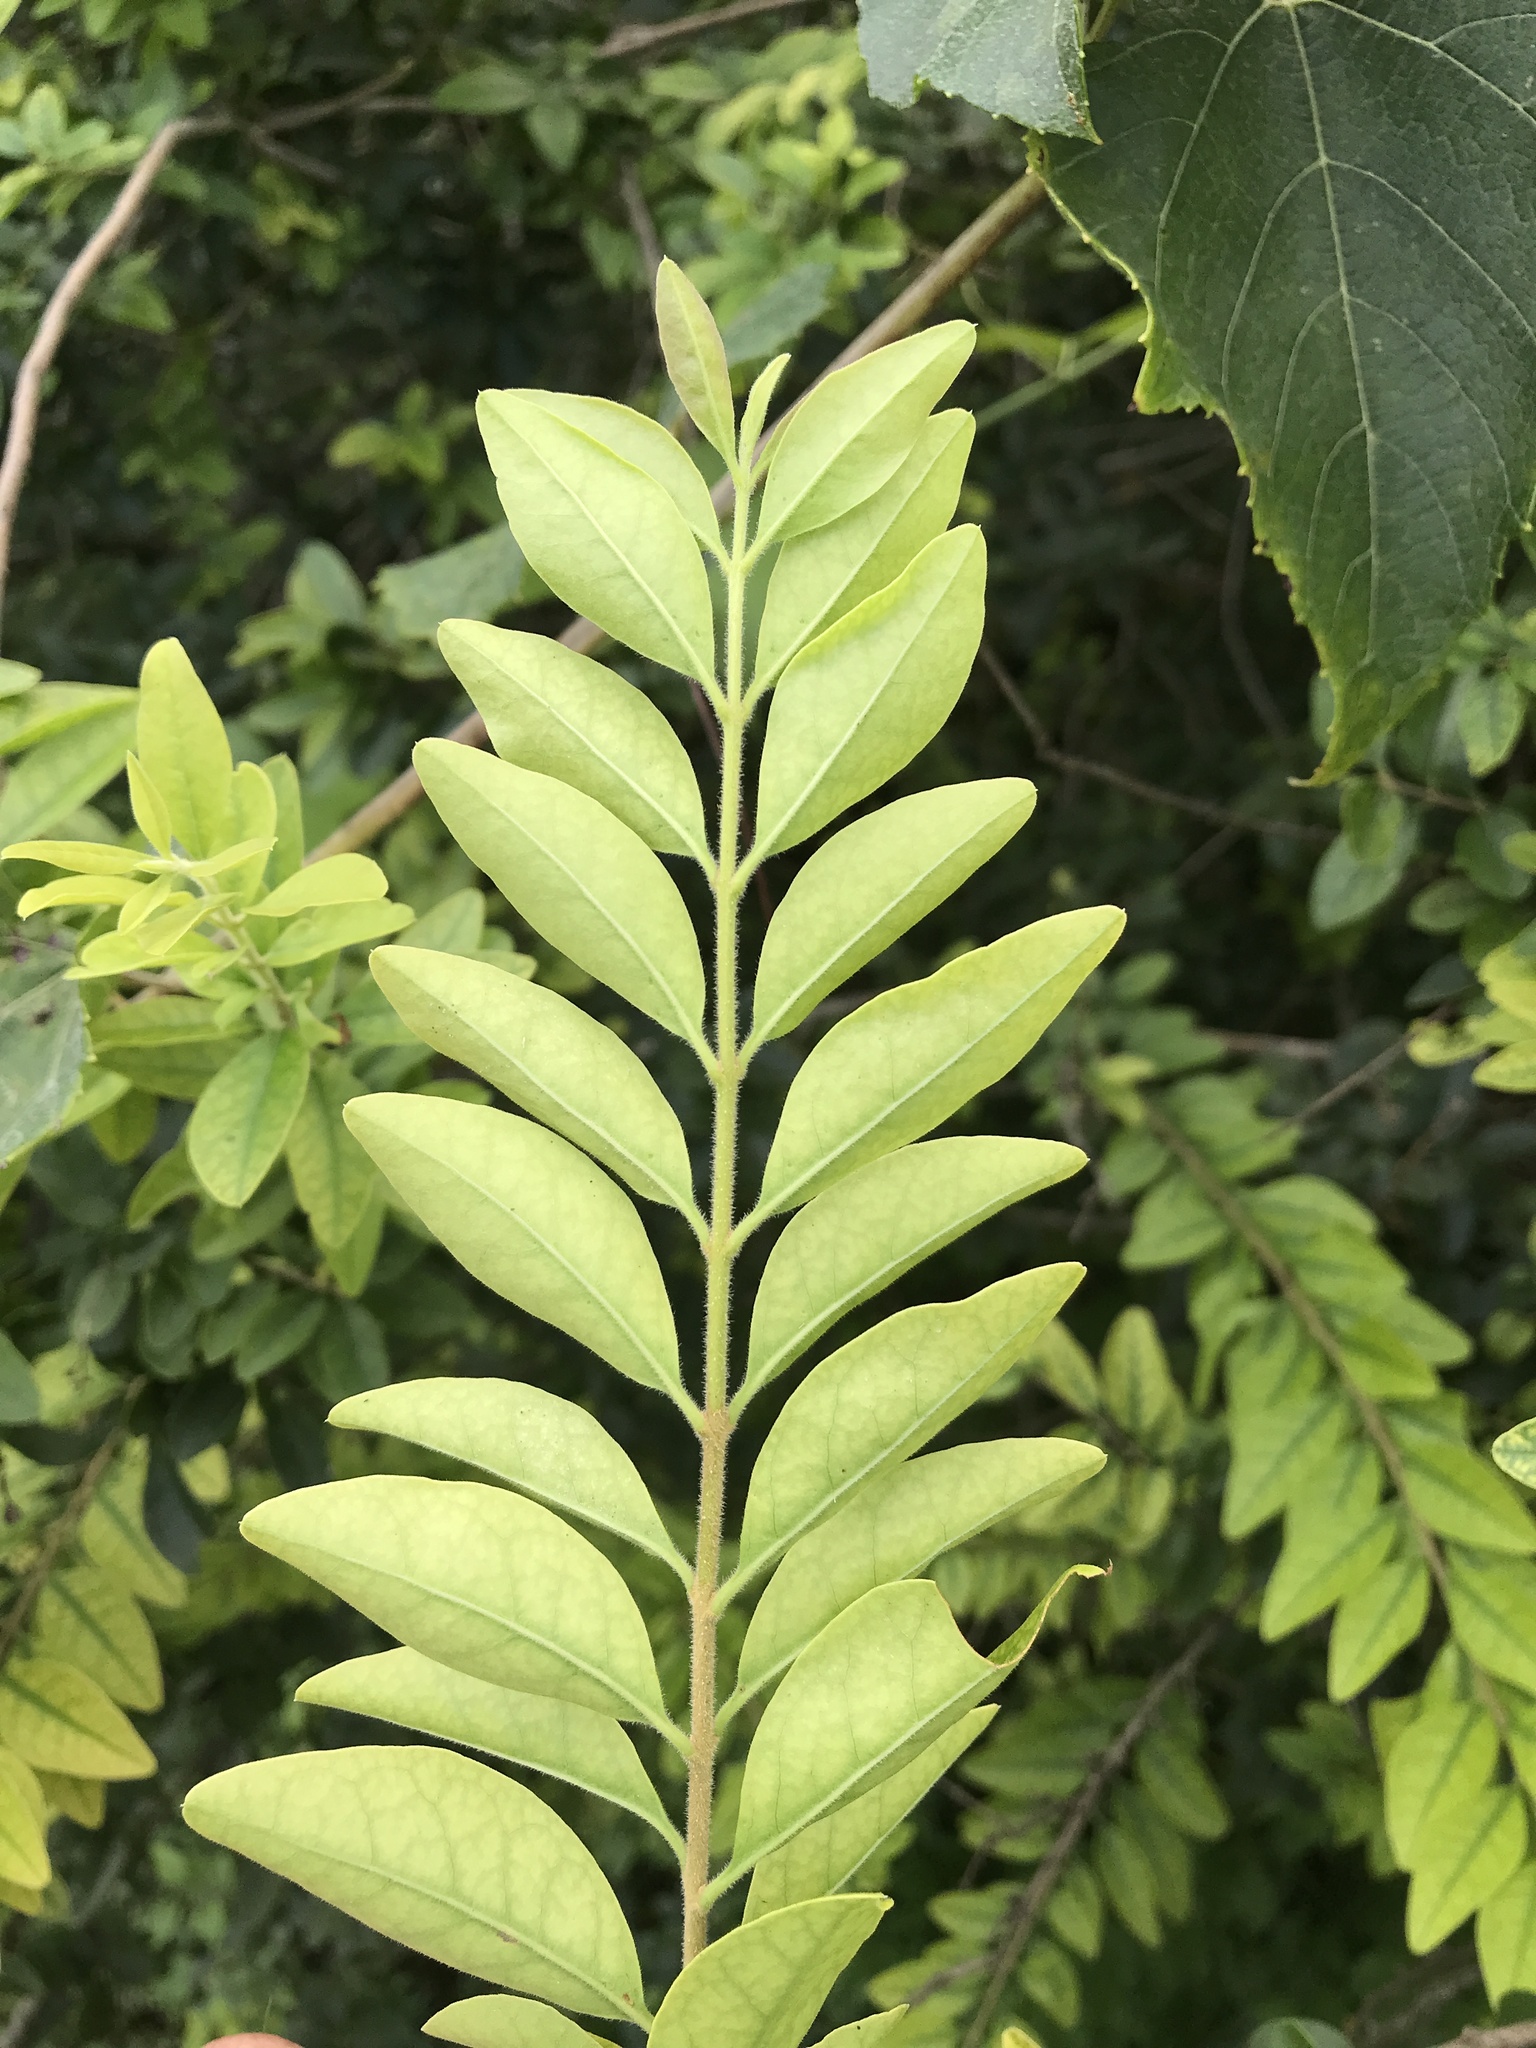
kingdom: Plantae
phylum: Tracheophyta
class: Magnoliopsida
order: Lamiales
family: Oleaceae
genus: Ligustrum
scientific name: Ligustrum sinense
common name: Chinese privet
